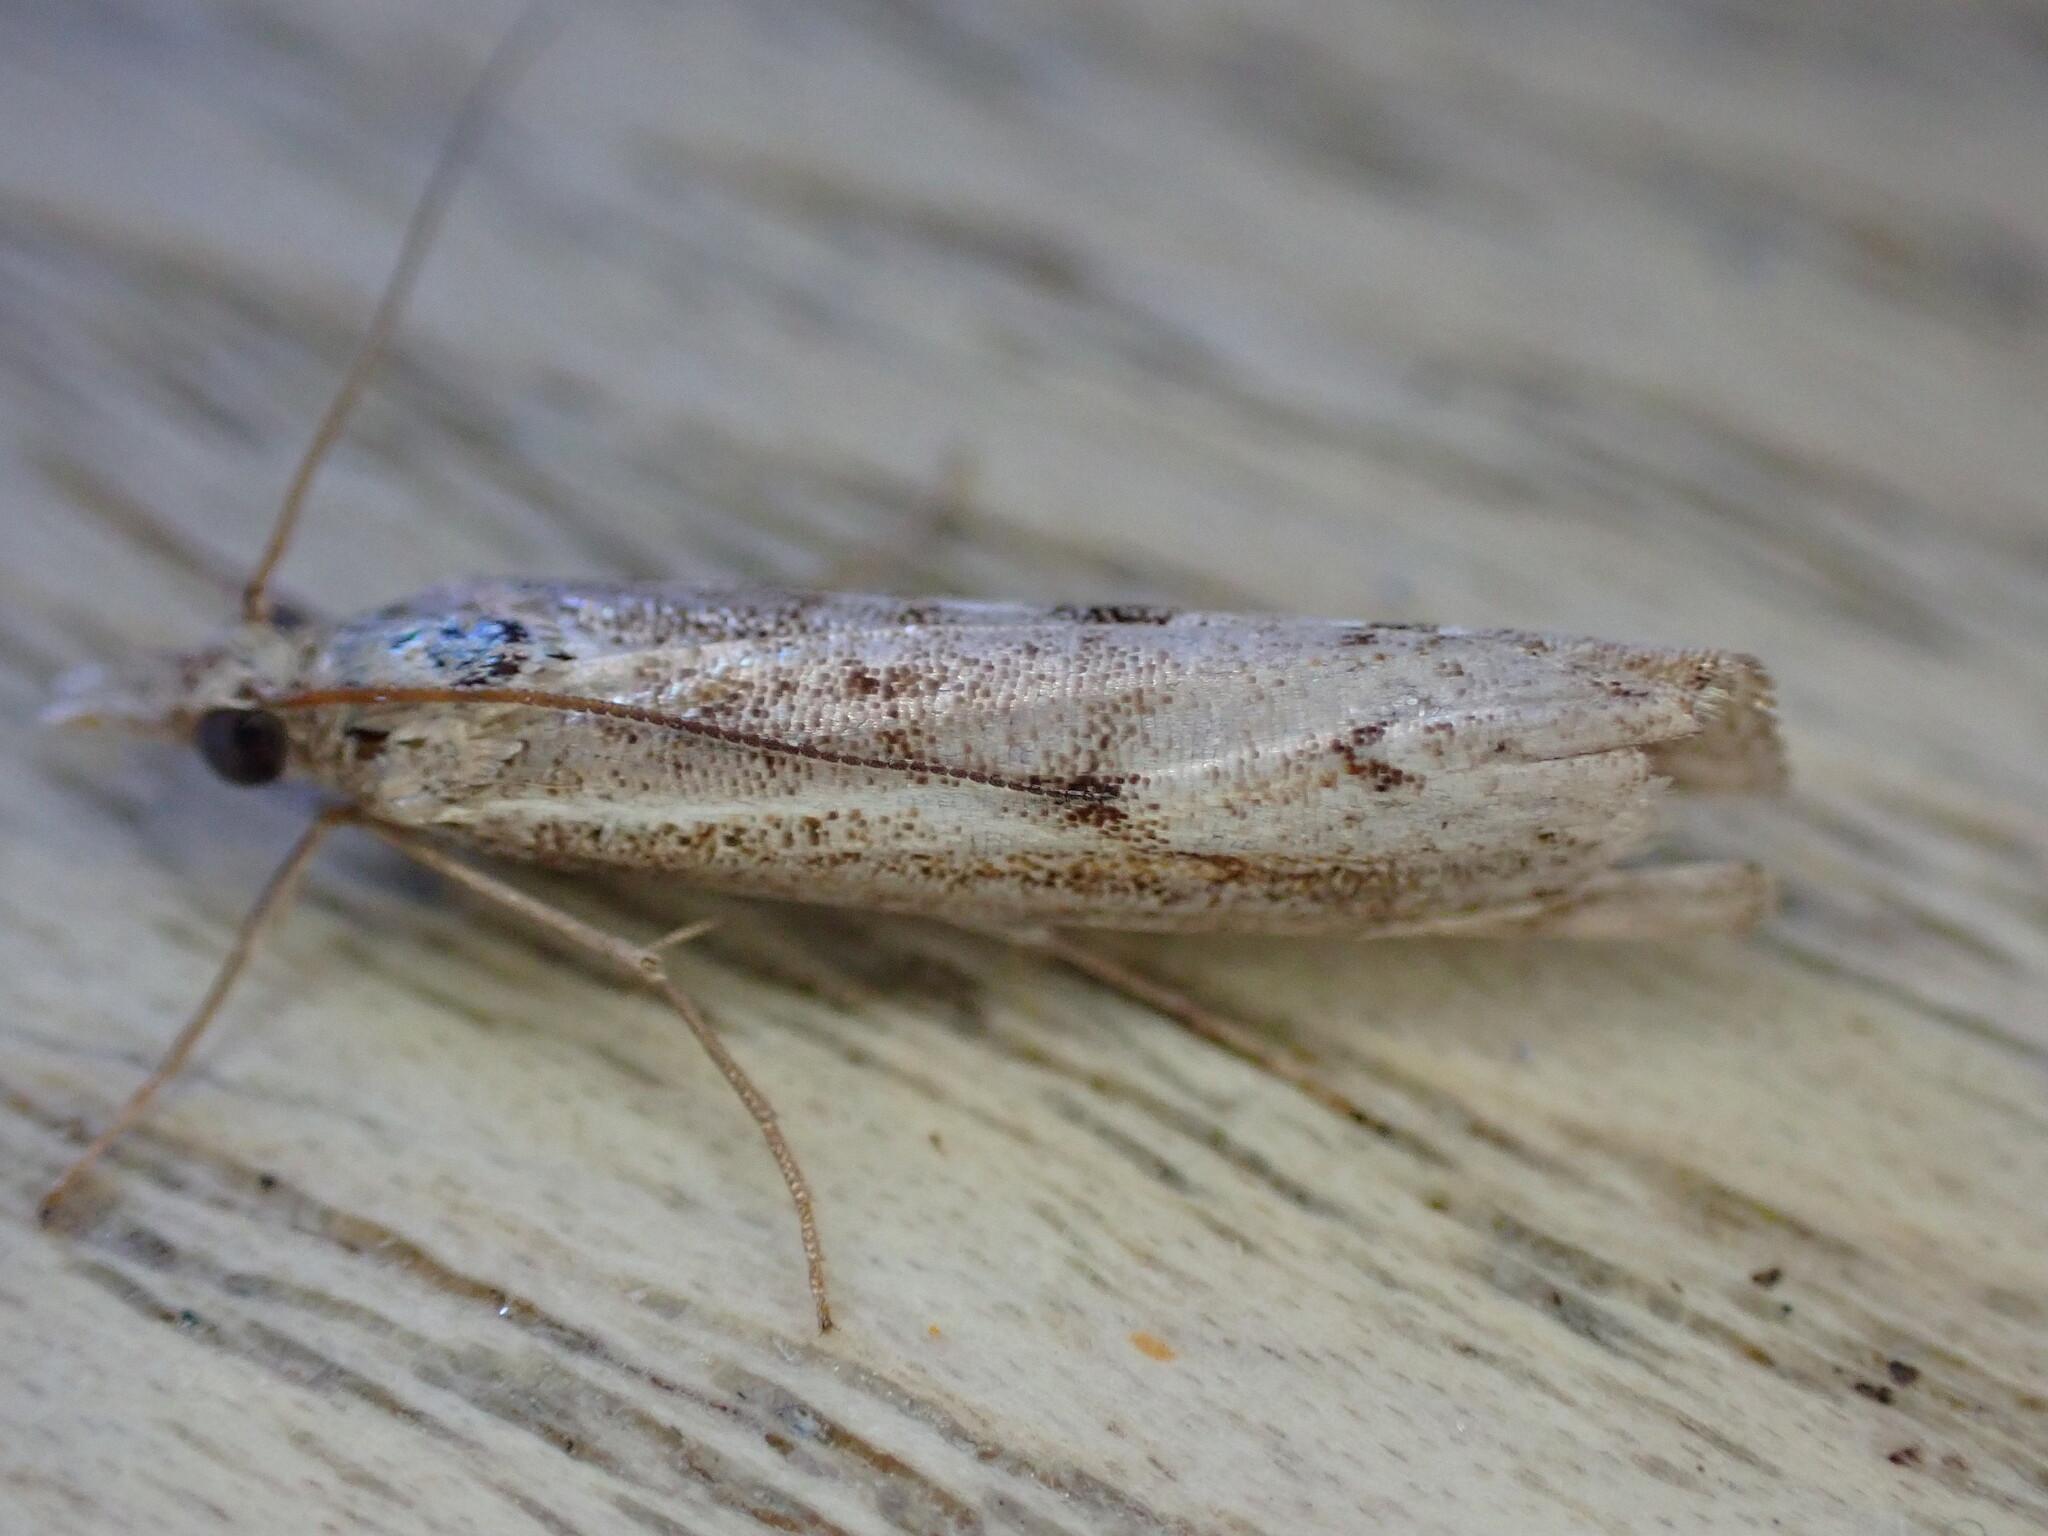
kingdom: Animalia
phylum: Arthropoda
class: Insecta
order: Lepidoptera
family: Crambidae
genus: Agriphila
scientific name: Agriphila geniculea
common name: Elbow-stripe grass-veneer
